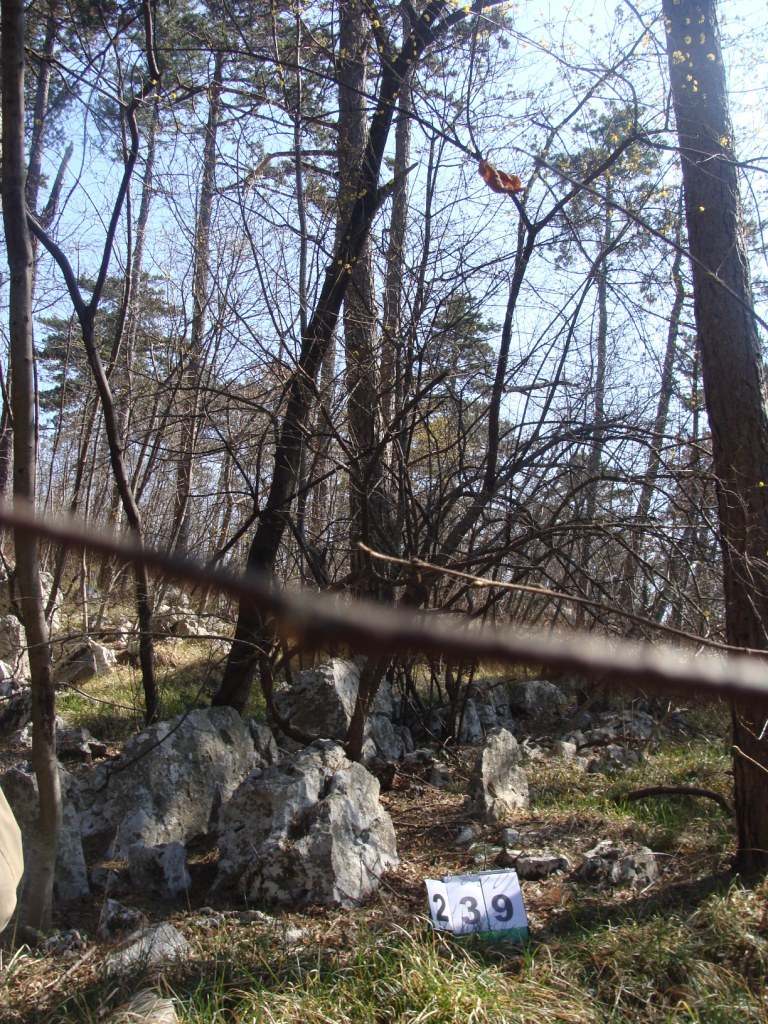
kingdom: Plantae
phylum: Tracheophyta
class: Magnoliopsida
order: Cornales
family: Cornaceae
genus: Cornus
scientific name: Cornus mas
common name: Cornelian-cherry
